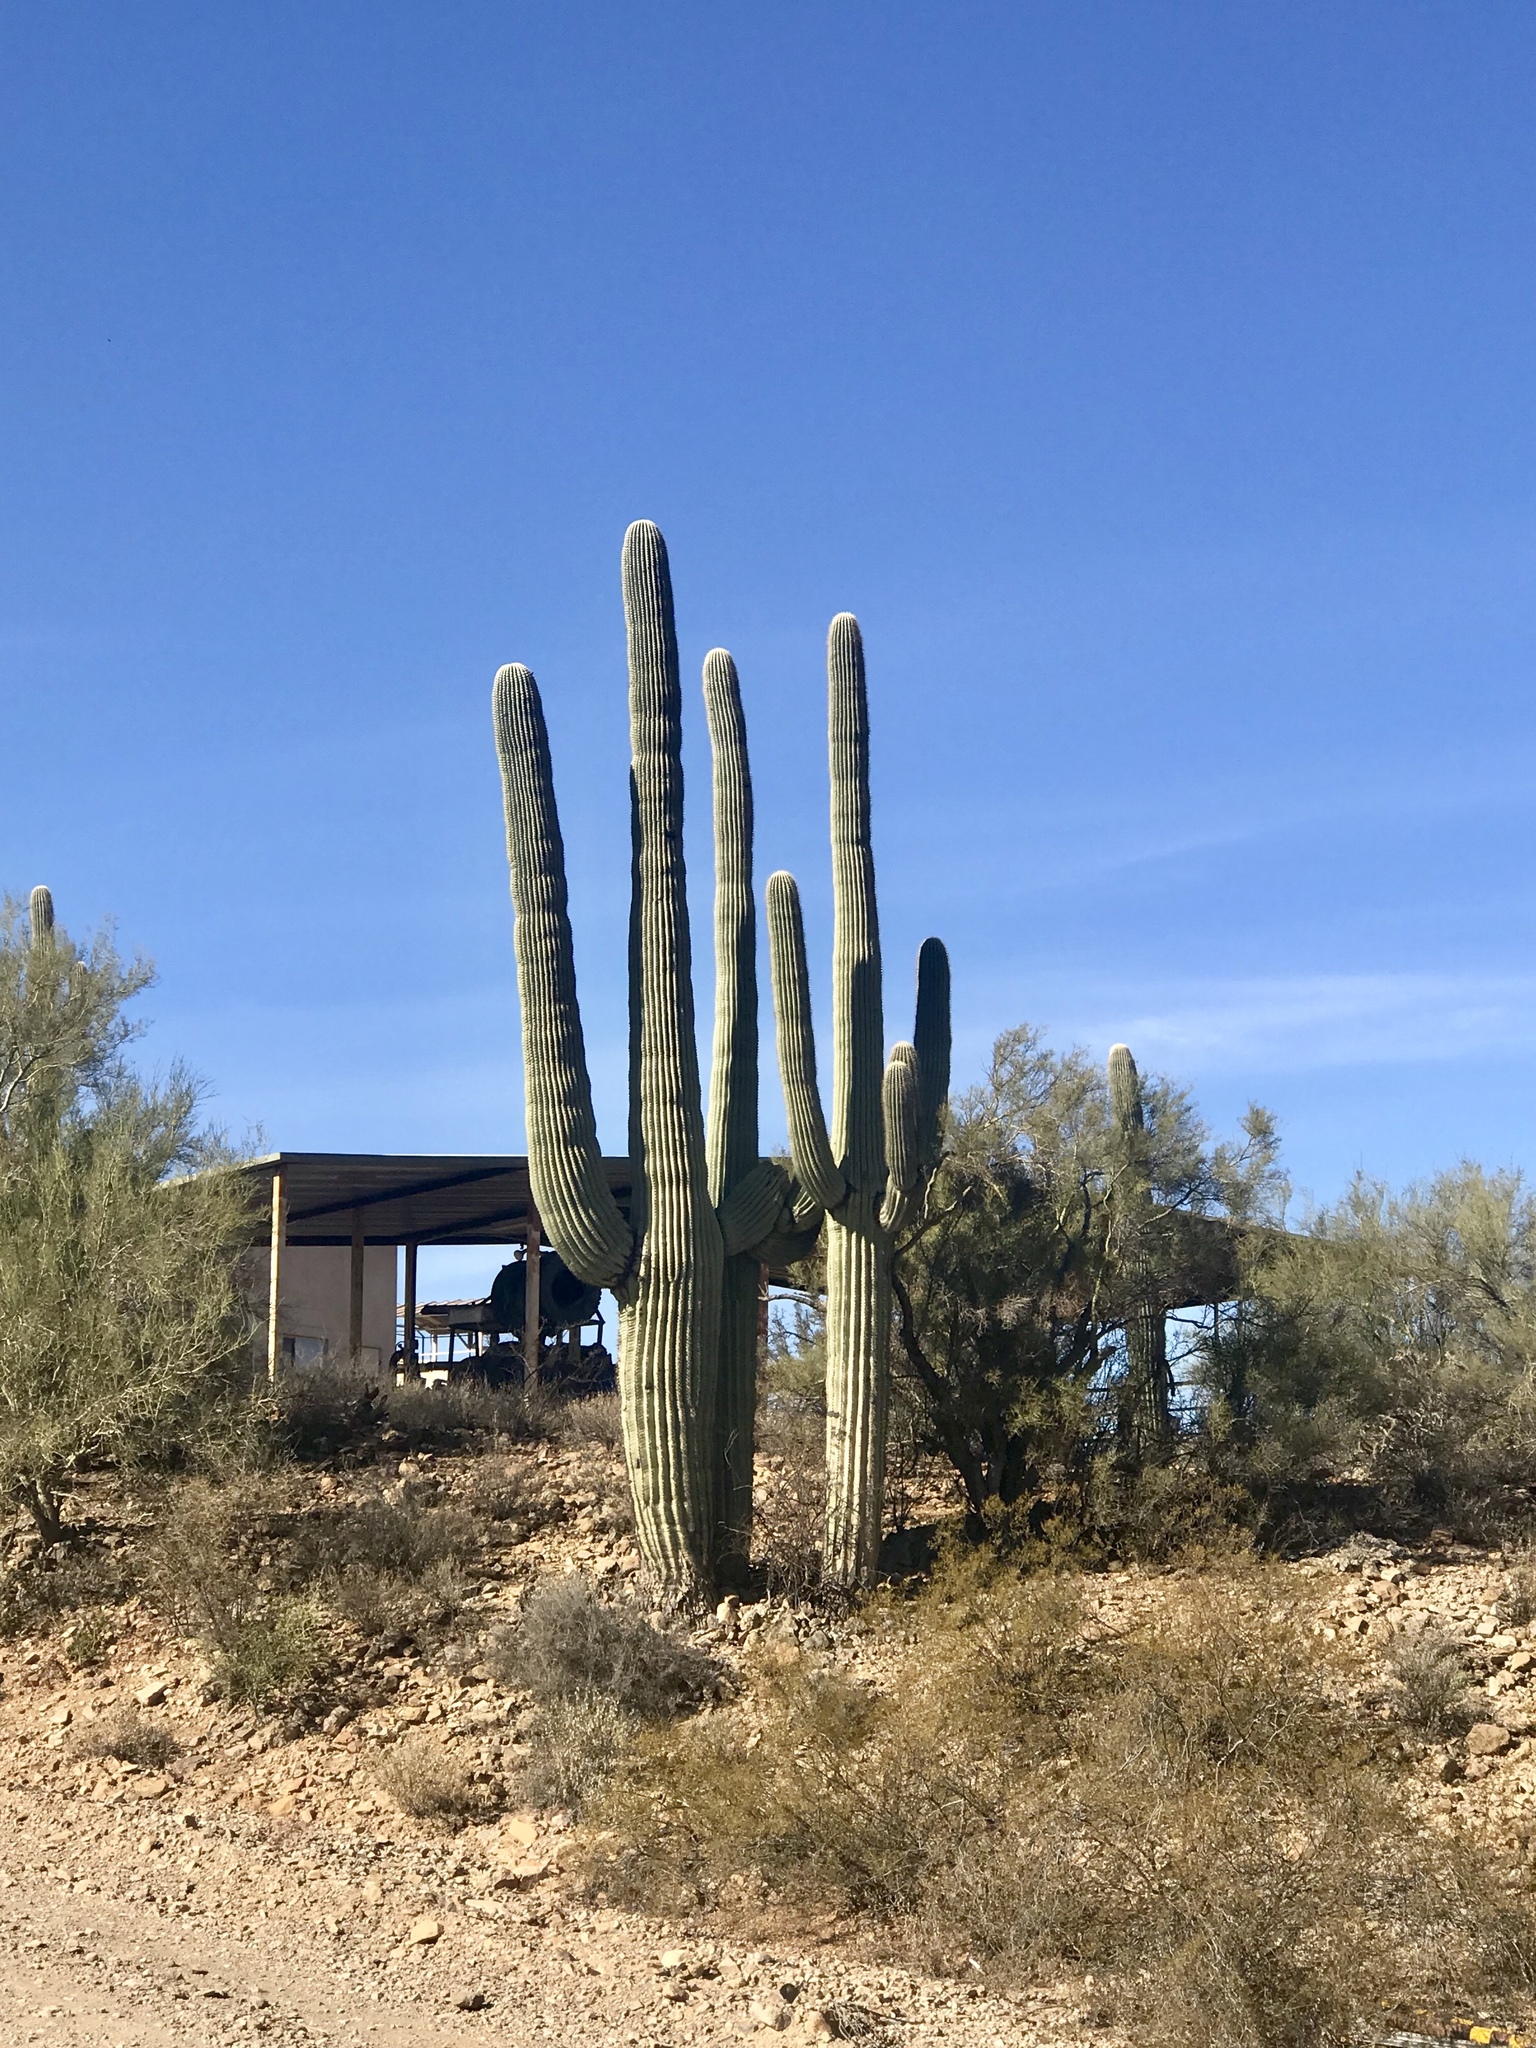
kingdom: Plantae
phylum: Tracheophyta
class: Magnoliopsida
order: Caryophyllales
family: Cactaceae
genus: Carnegiea
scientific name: Carnegiea gigantea
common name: Saguaro
